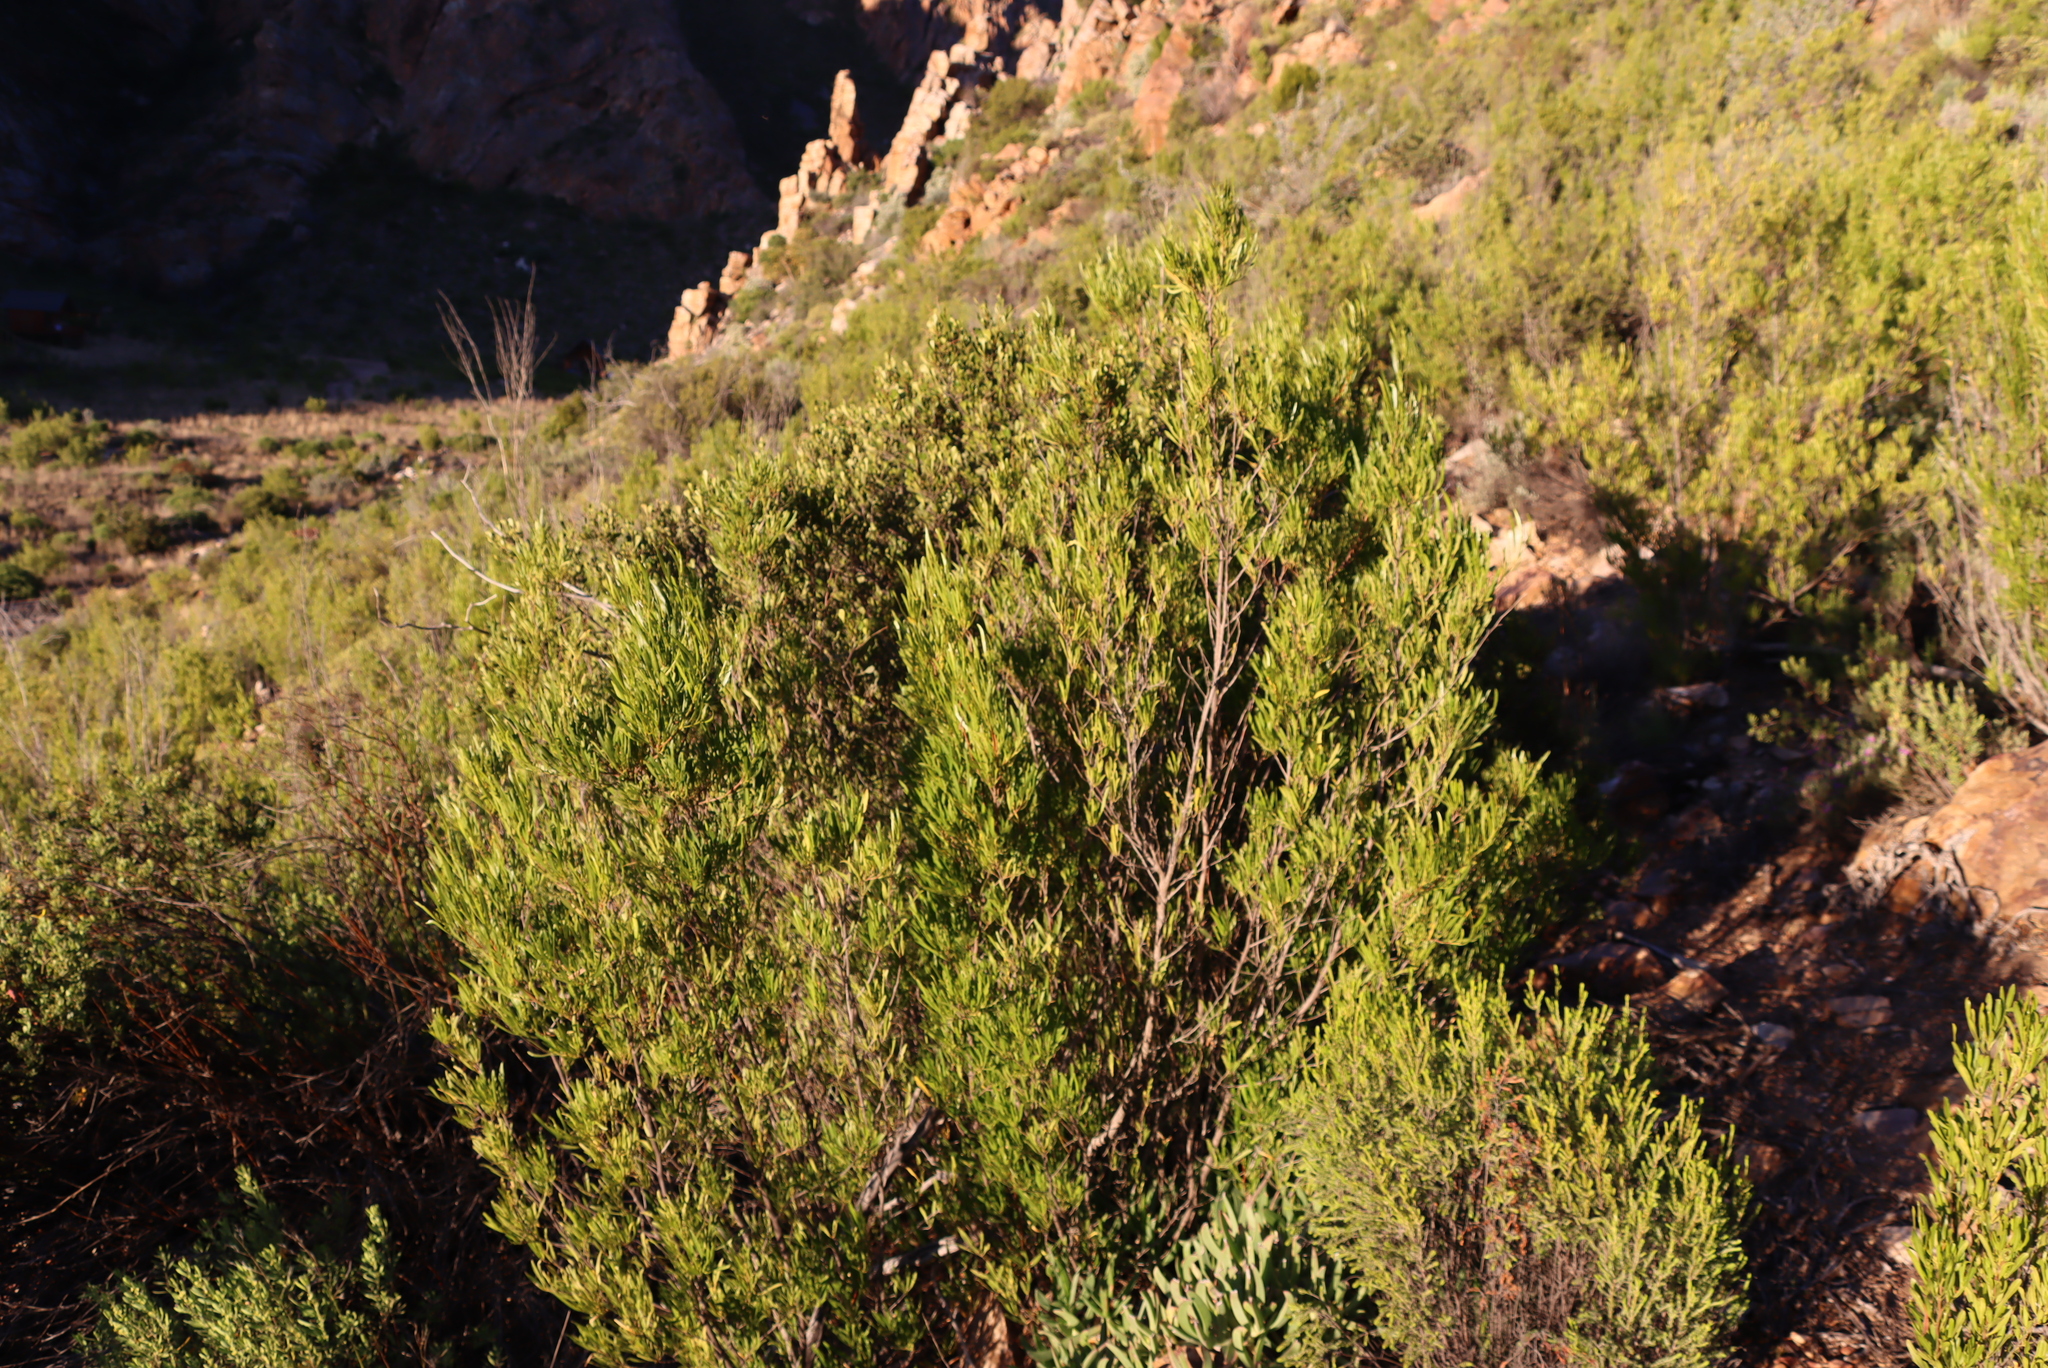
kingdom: Plantae
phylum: Tracheophyta
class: Magnoliopsida
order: Sapindales
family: Sapindaceae
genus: Dodonaea
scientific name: Dodonaea viscosa
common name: Hopbush
